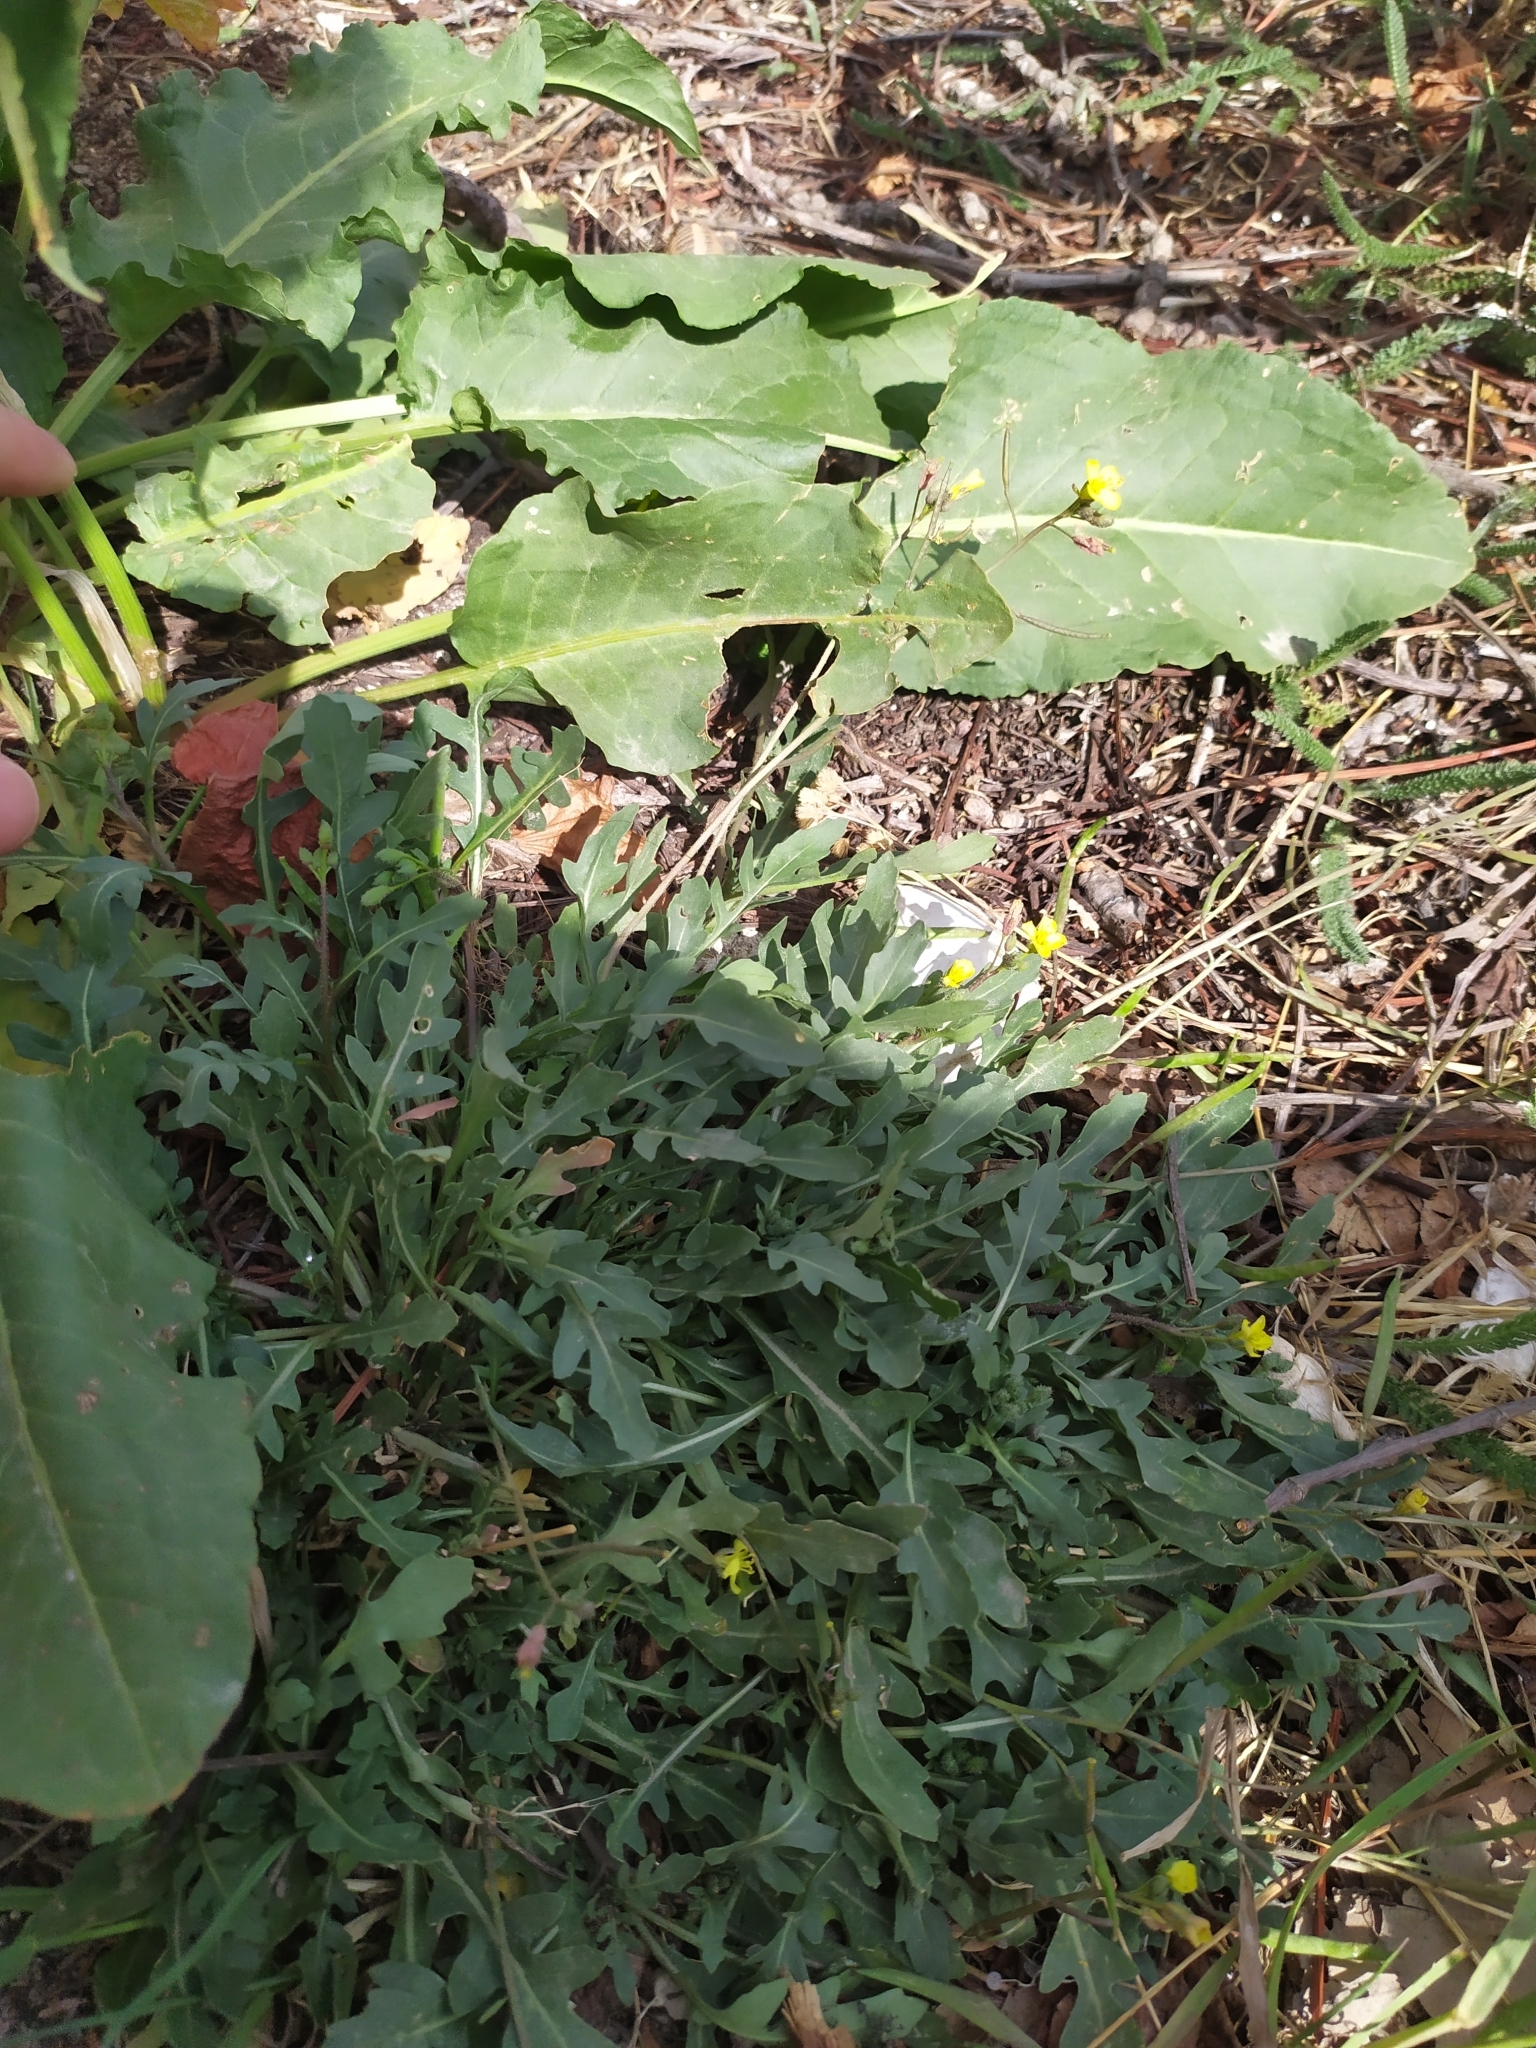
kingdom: Plantae
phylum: Tracheophyta
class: Magnoliopsida
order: Brassicales
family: Brassicaceae
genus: Diplotaxis
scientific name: Diplotaxis tenuifolia
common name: Perennial wall-rocket
